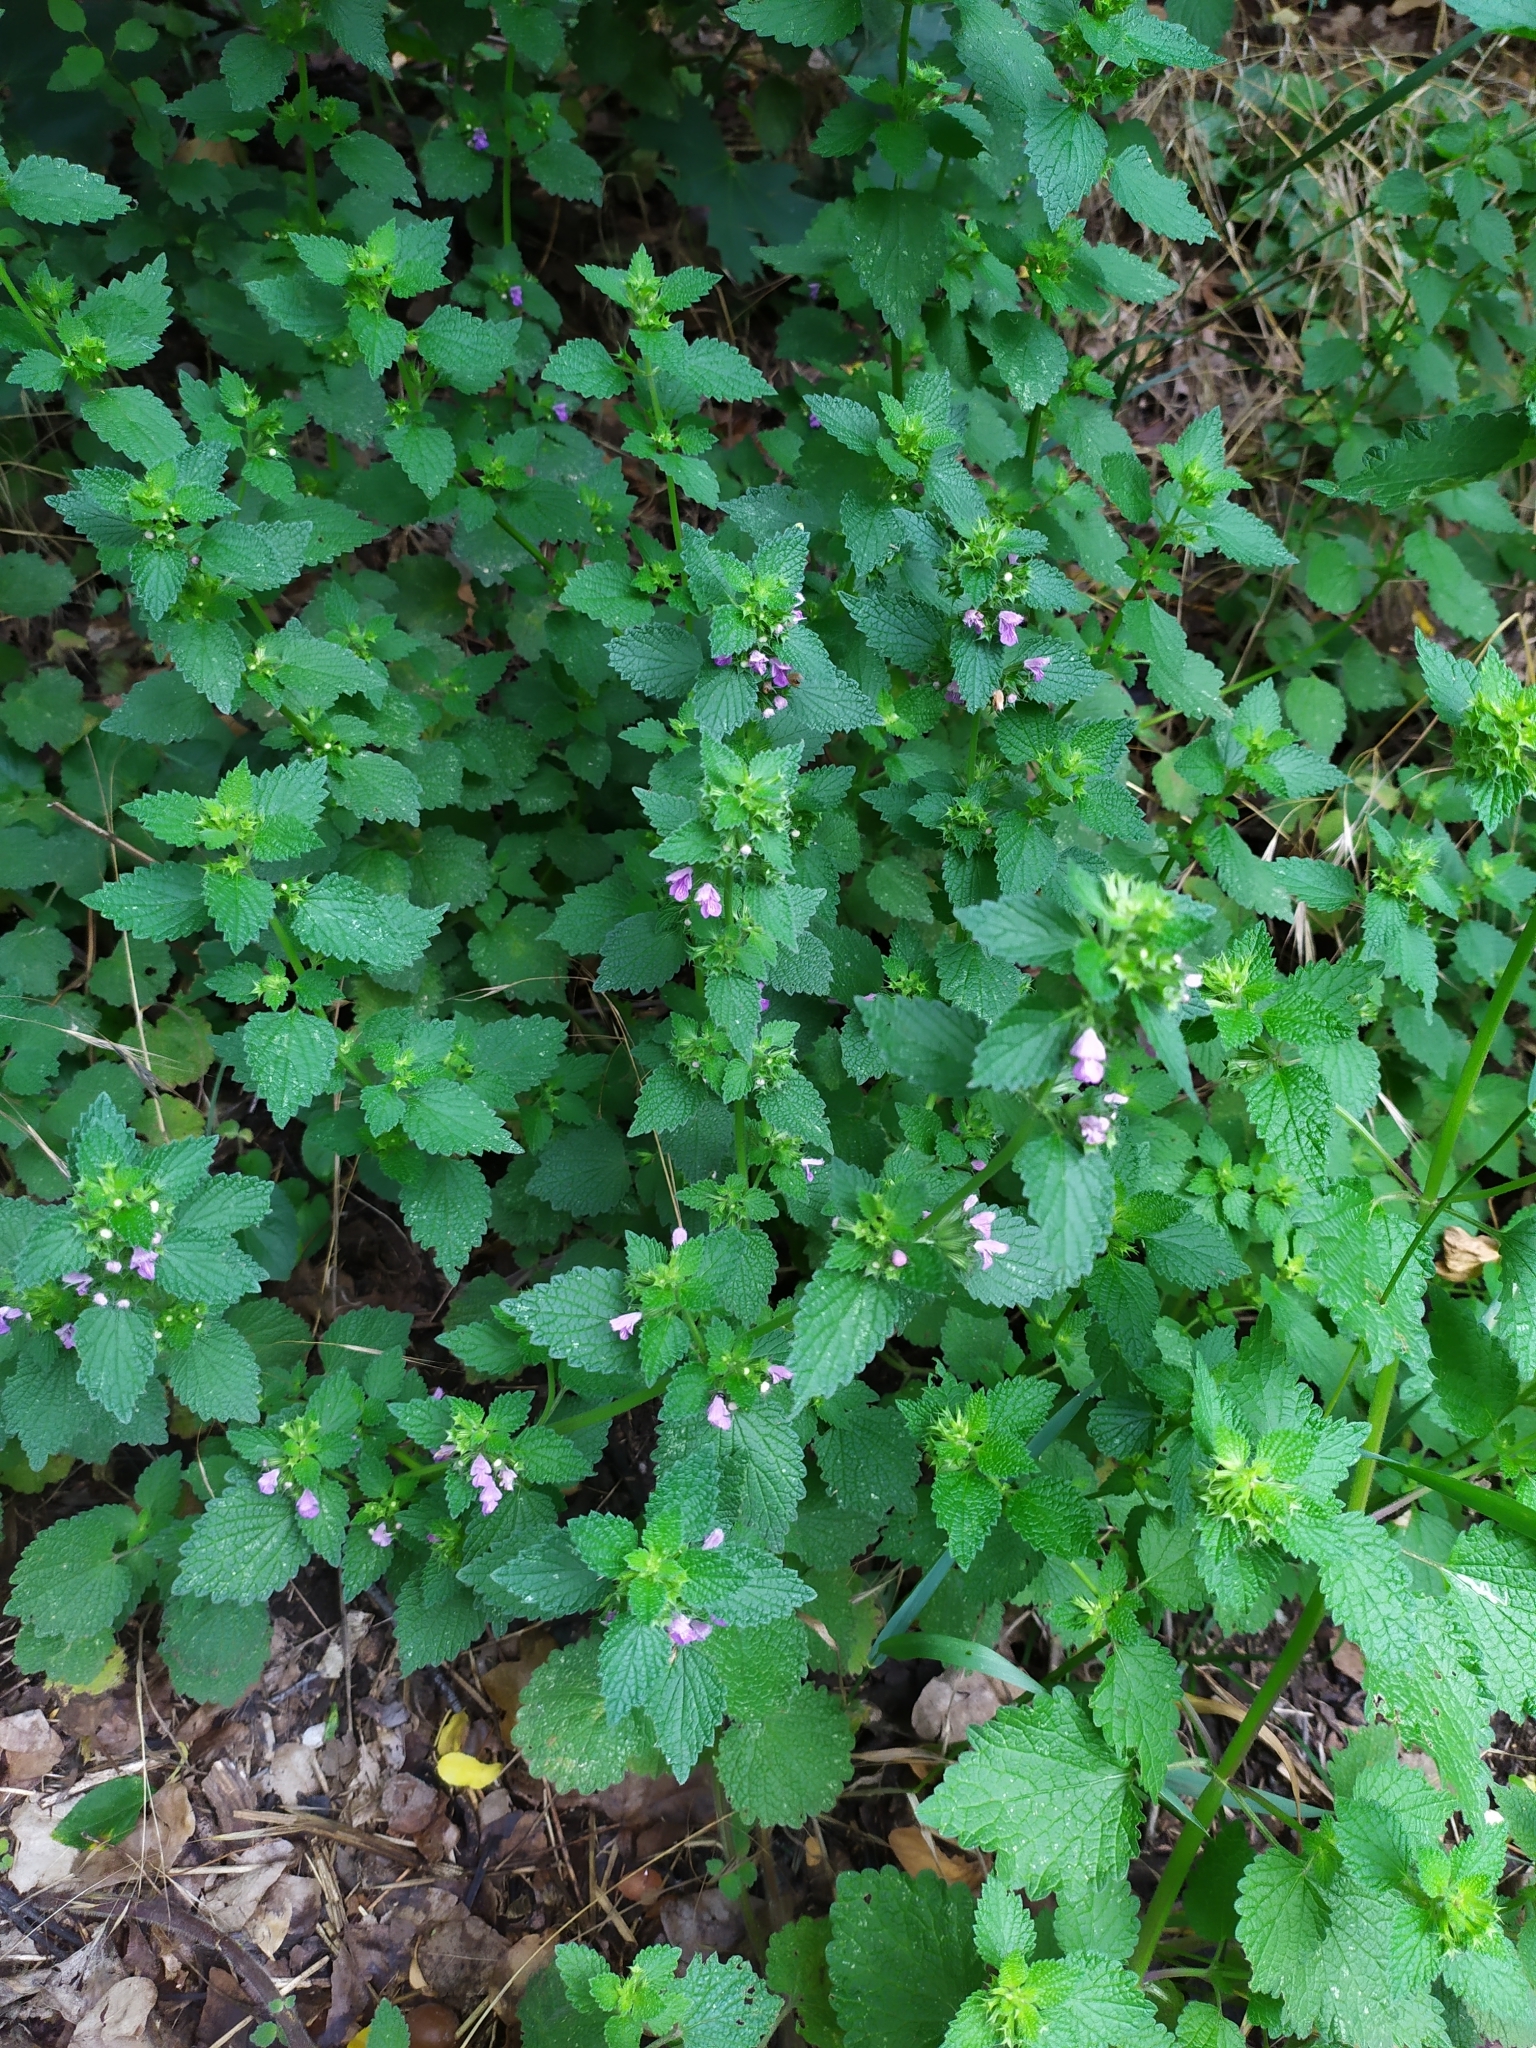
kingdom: Plantae
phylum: Tracheophyta
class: Magnoliopsida
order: Lamiales
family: Lamiaceae
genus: Ballota
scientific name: Ballota nigra
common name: Black horehound
